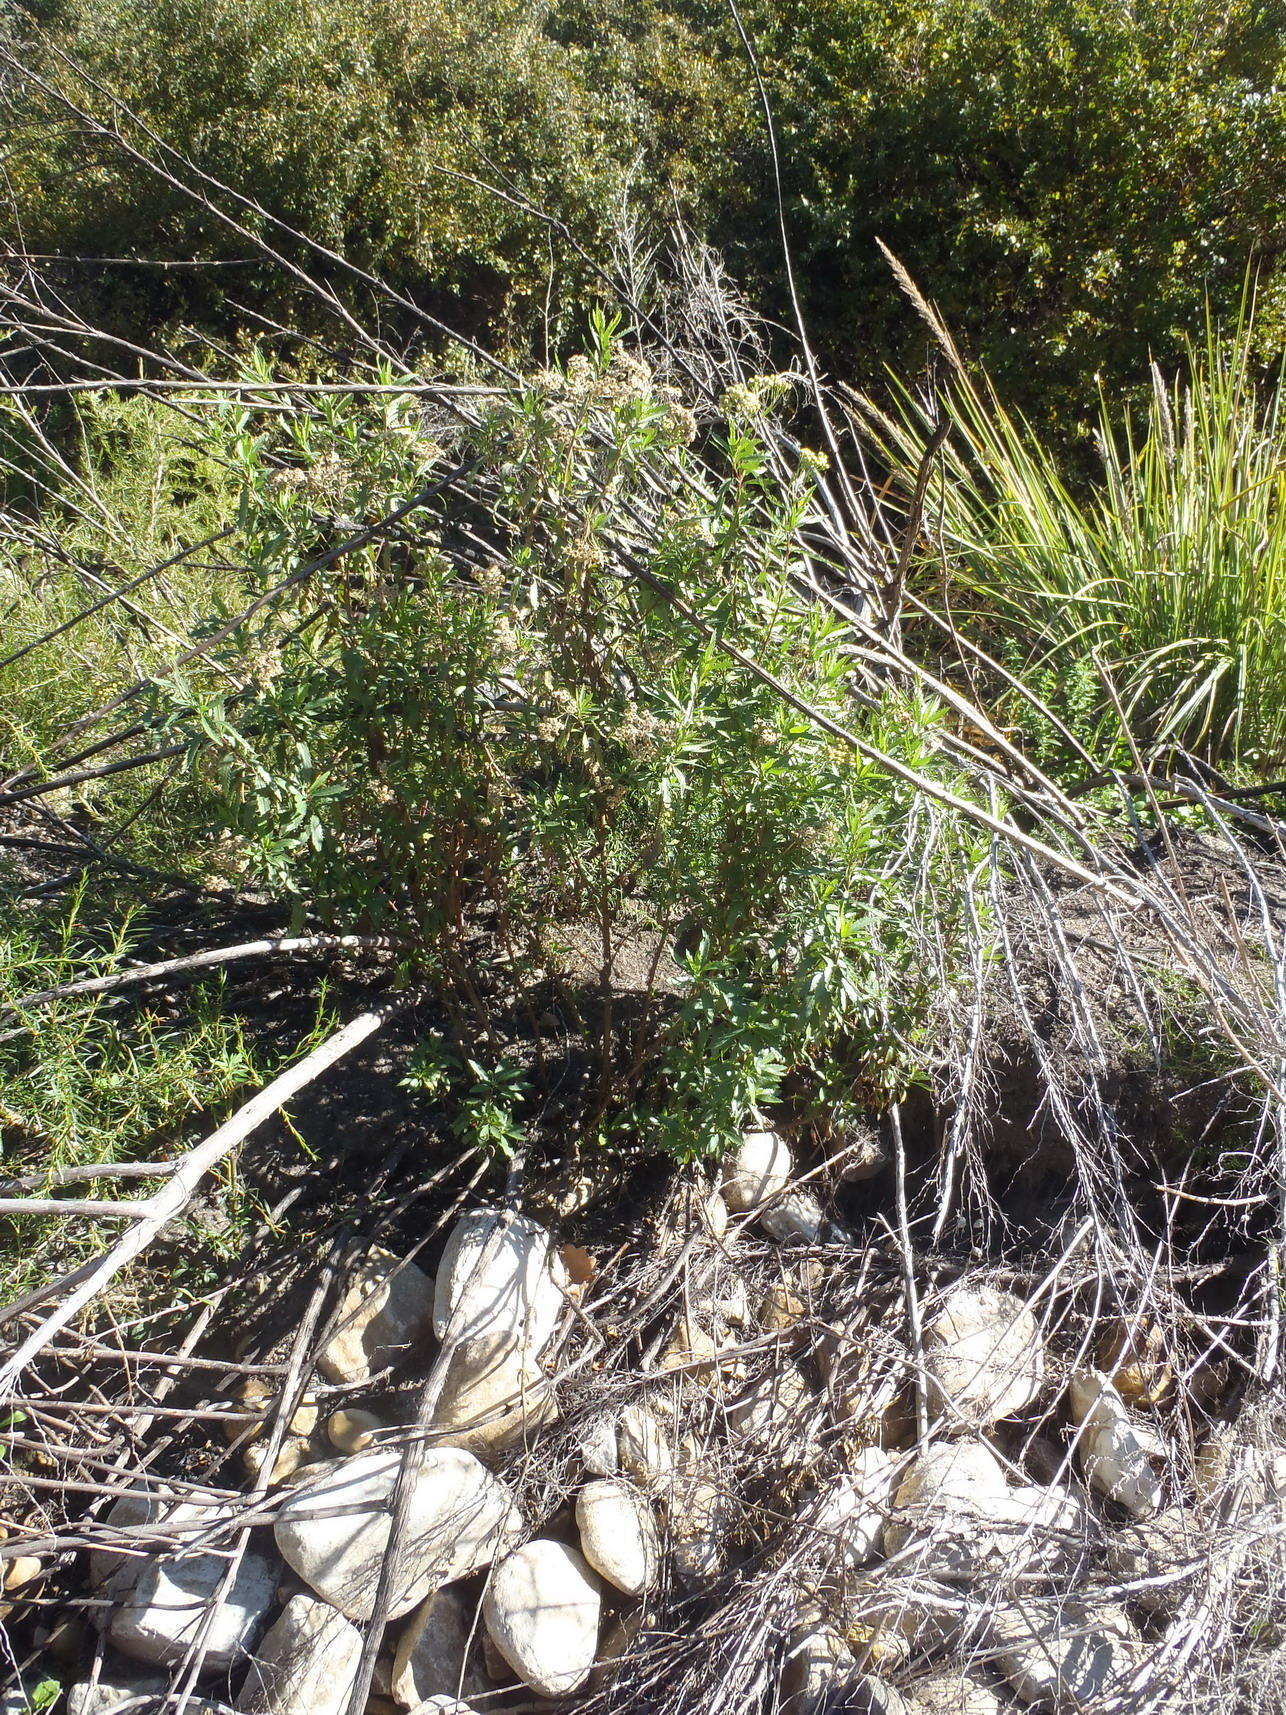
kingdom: Plantae
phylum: Tracheophyta
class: Magnoliopsida
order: Asterales
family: Asteraceae
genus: Nidorella
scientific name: Nidorella ivifolia
